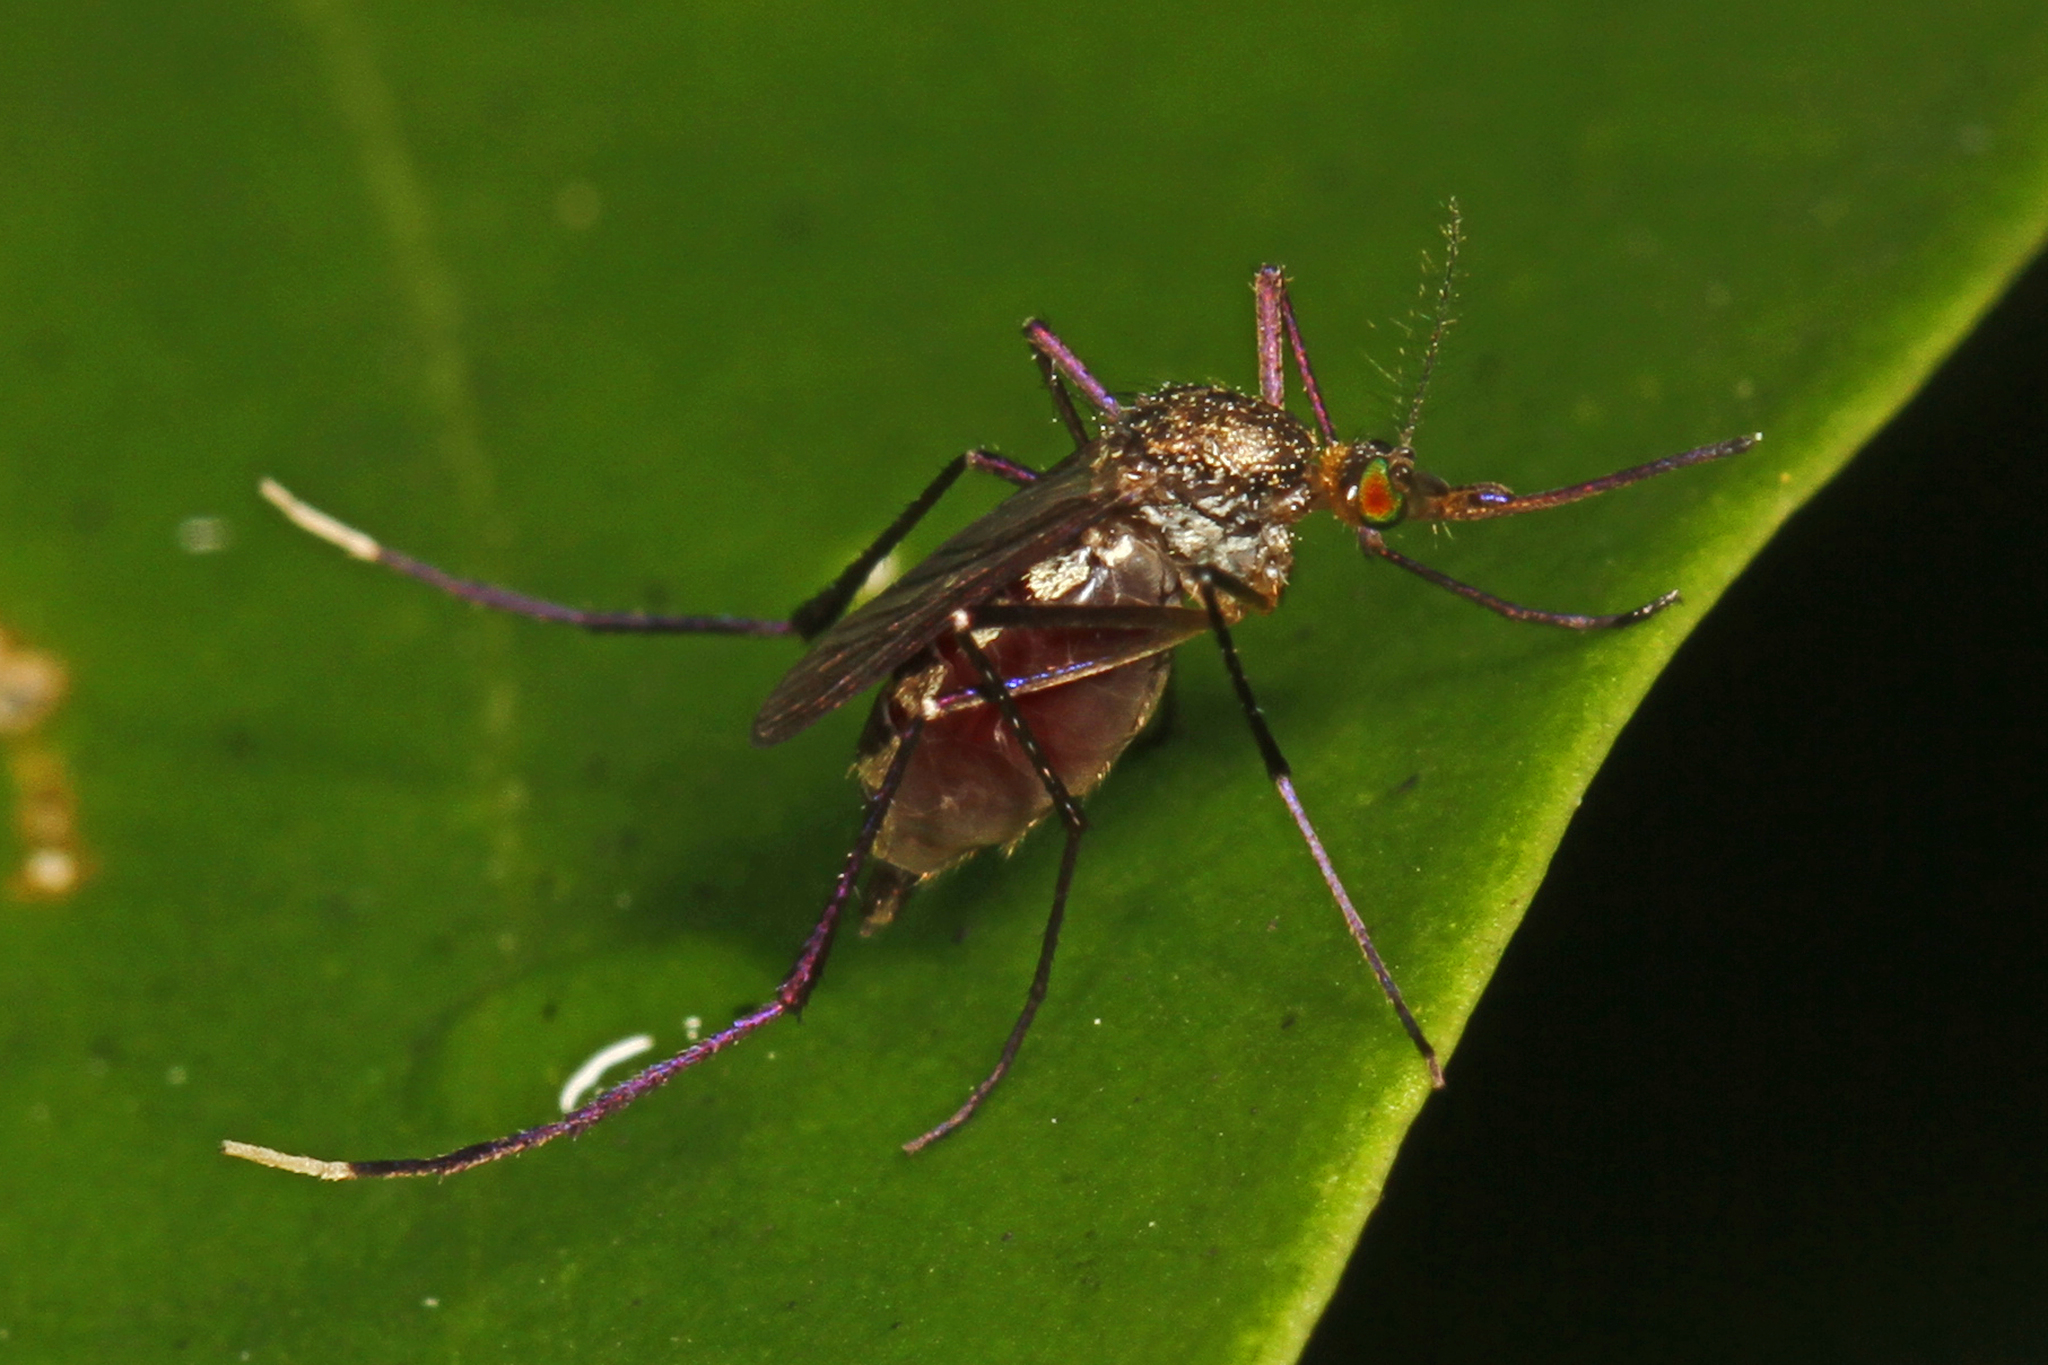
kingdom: Animalia
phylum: Arthropoda
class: Insecta
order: Diptera
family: Culicidae
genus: Psorophora
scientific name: Psorophora ferox
